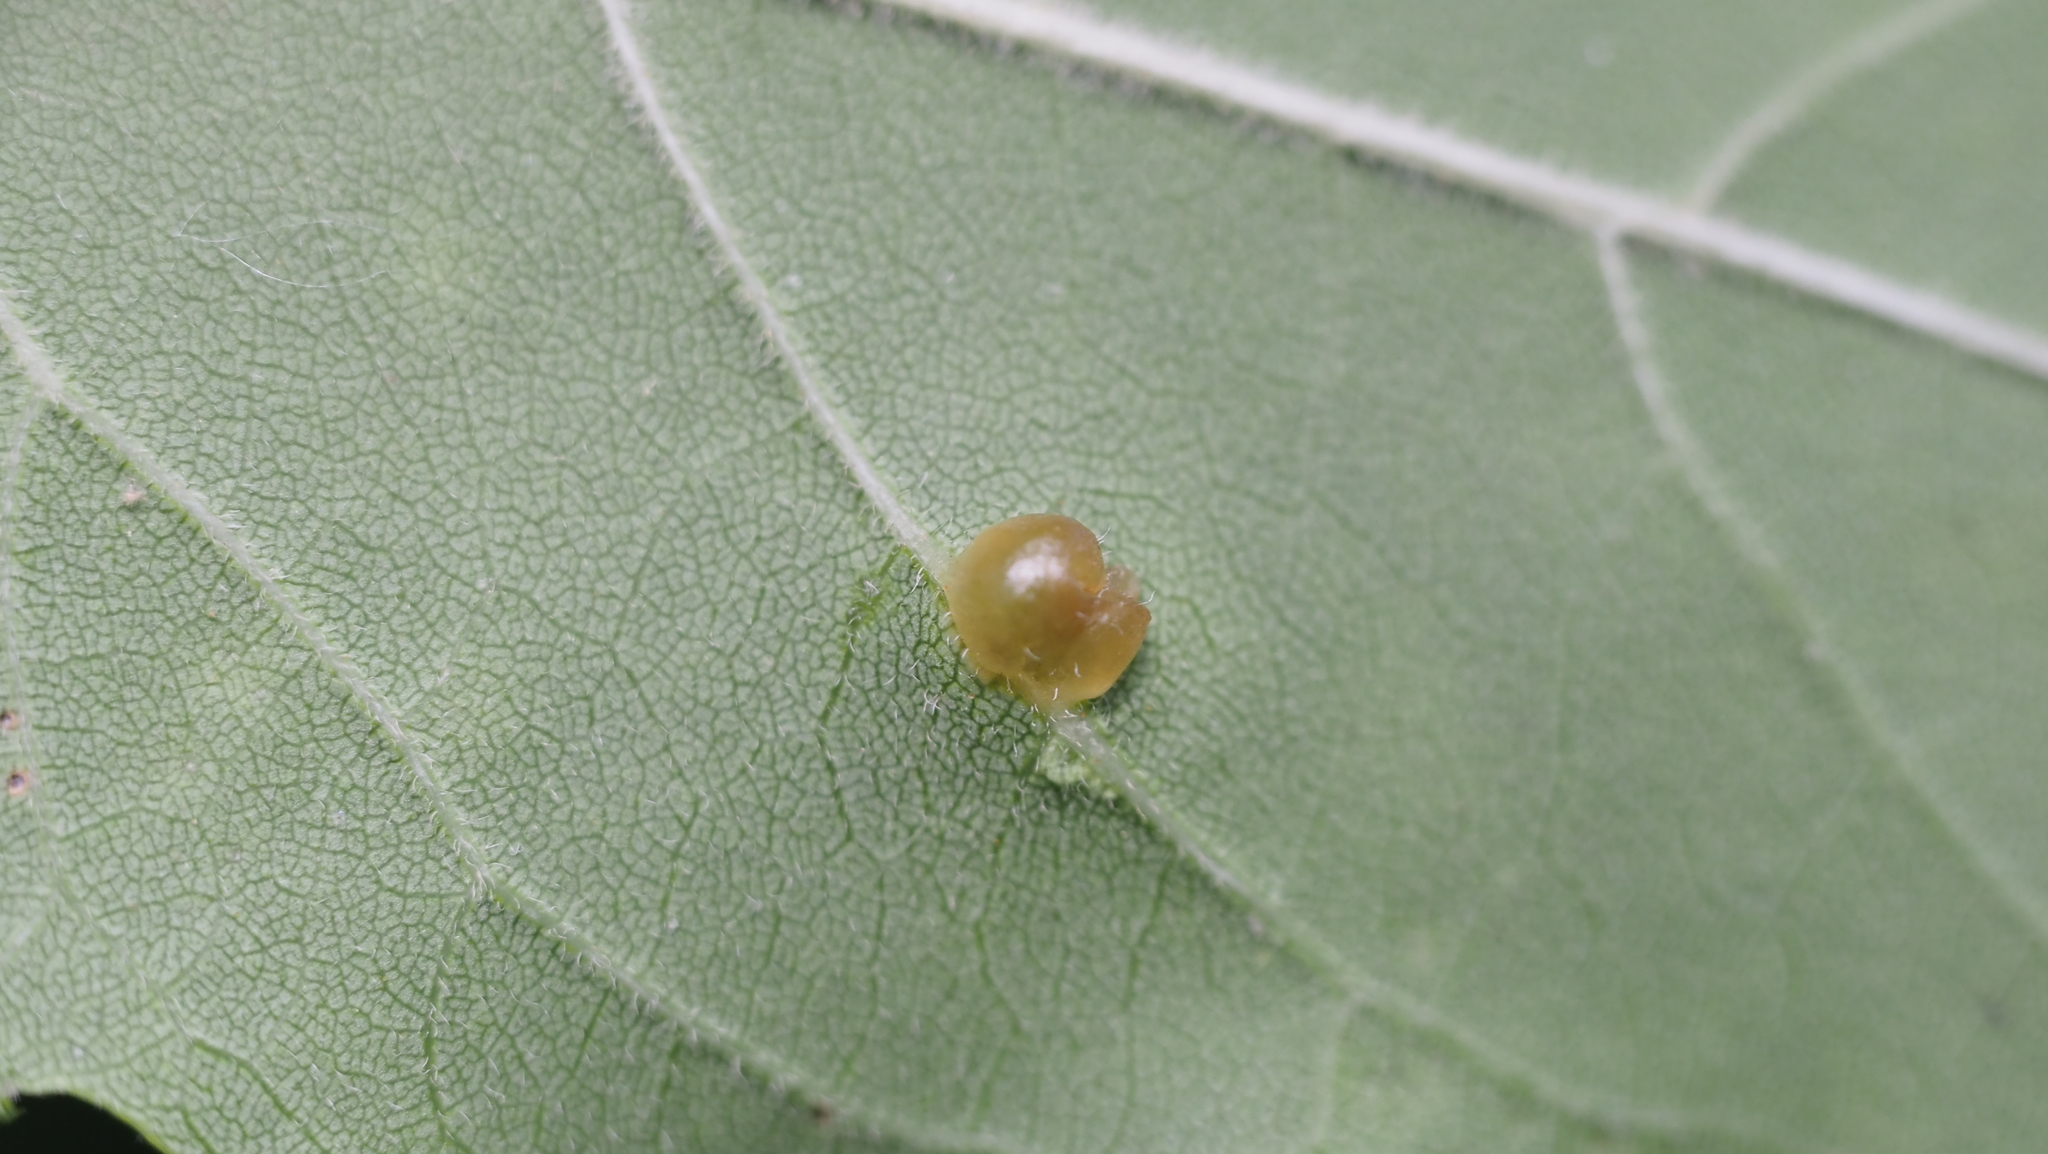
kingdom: Animalia
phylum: Arthropoda
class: Insecta
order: Diptera
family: Cecidomyiidae
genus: Dasineura
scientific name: Dasineura pellex
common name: Ash bullet gall midge
